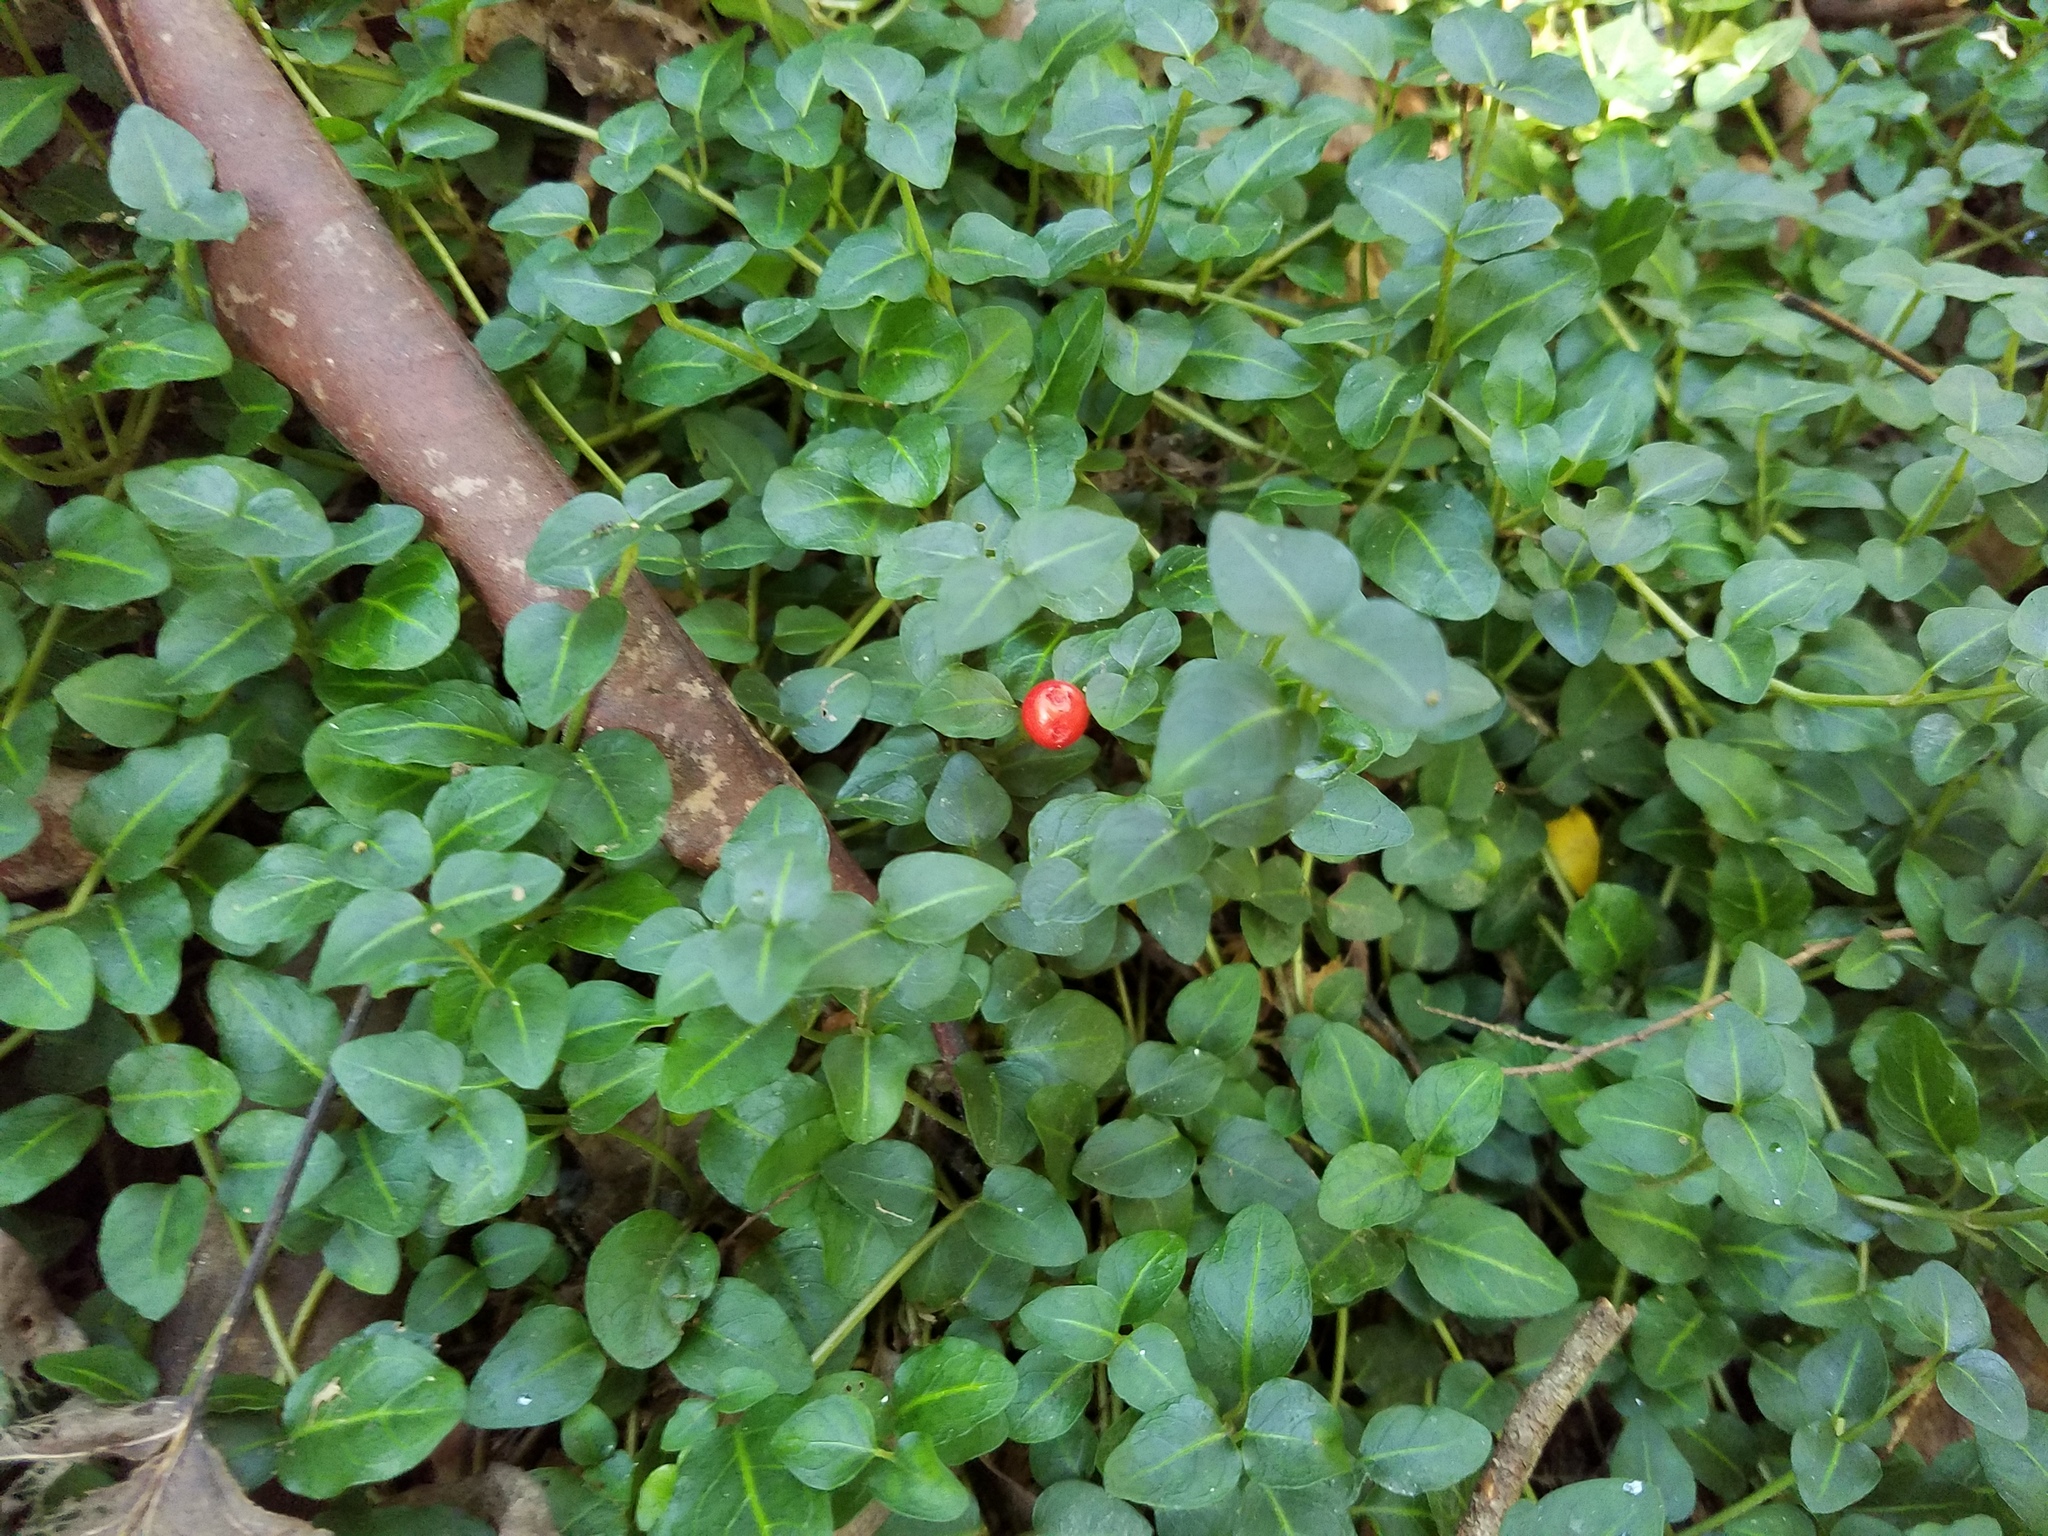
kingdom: Plantae
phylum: Tracheophyta
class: Magnoliopsida
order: Gentianales
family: Rubiaceae
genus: Mitchella
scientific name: Mitchella repens
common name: Partridge-berry
